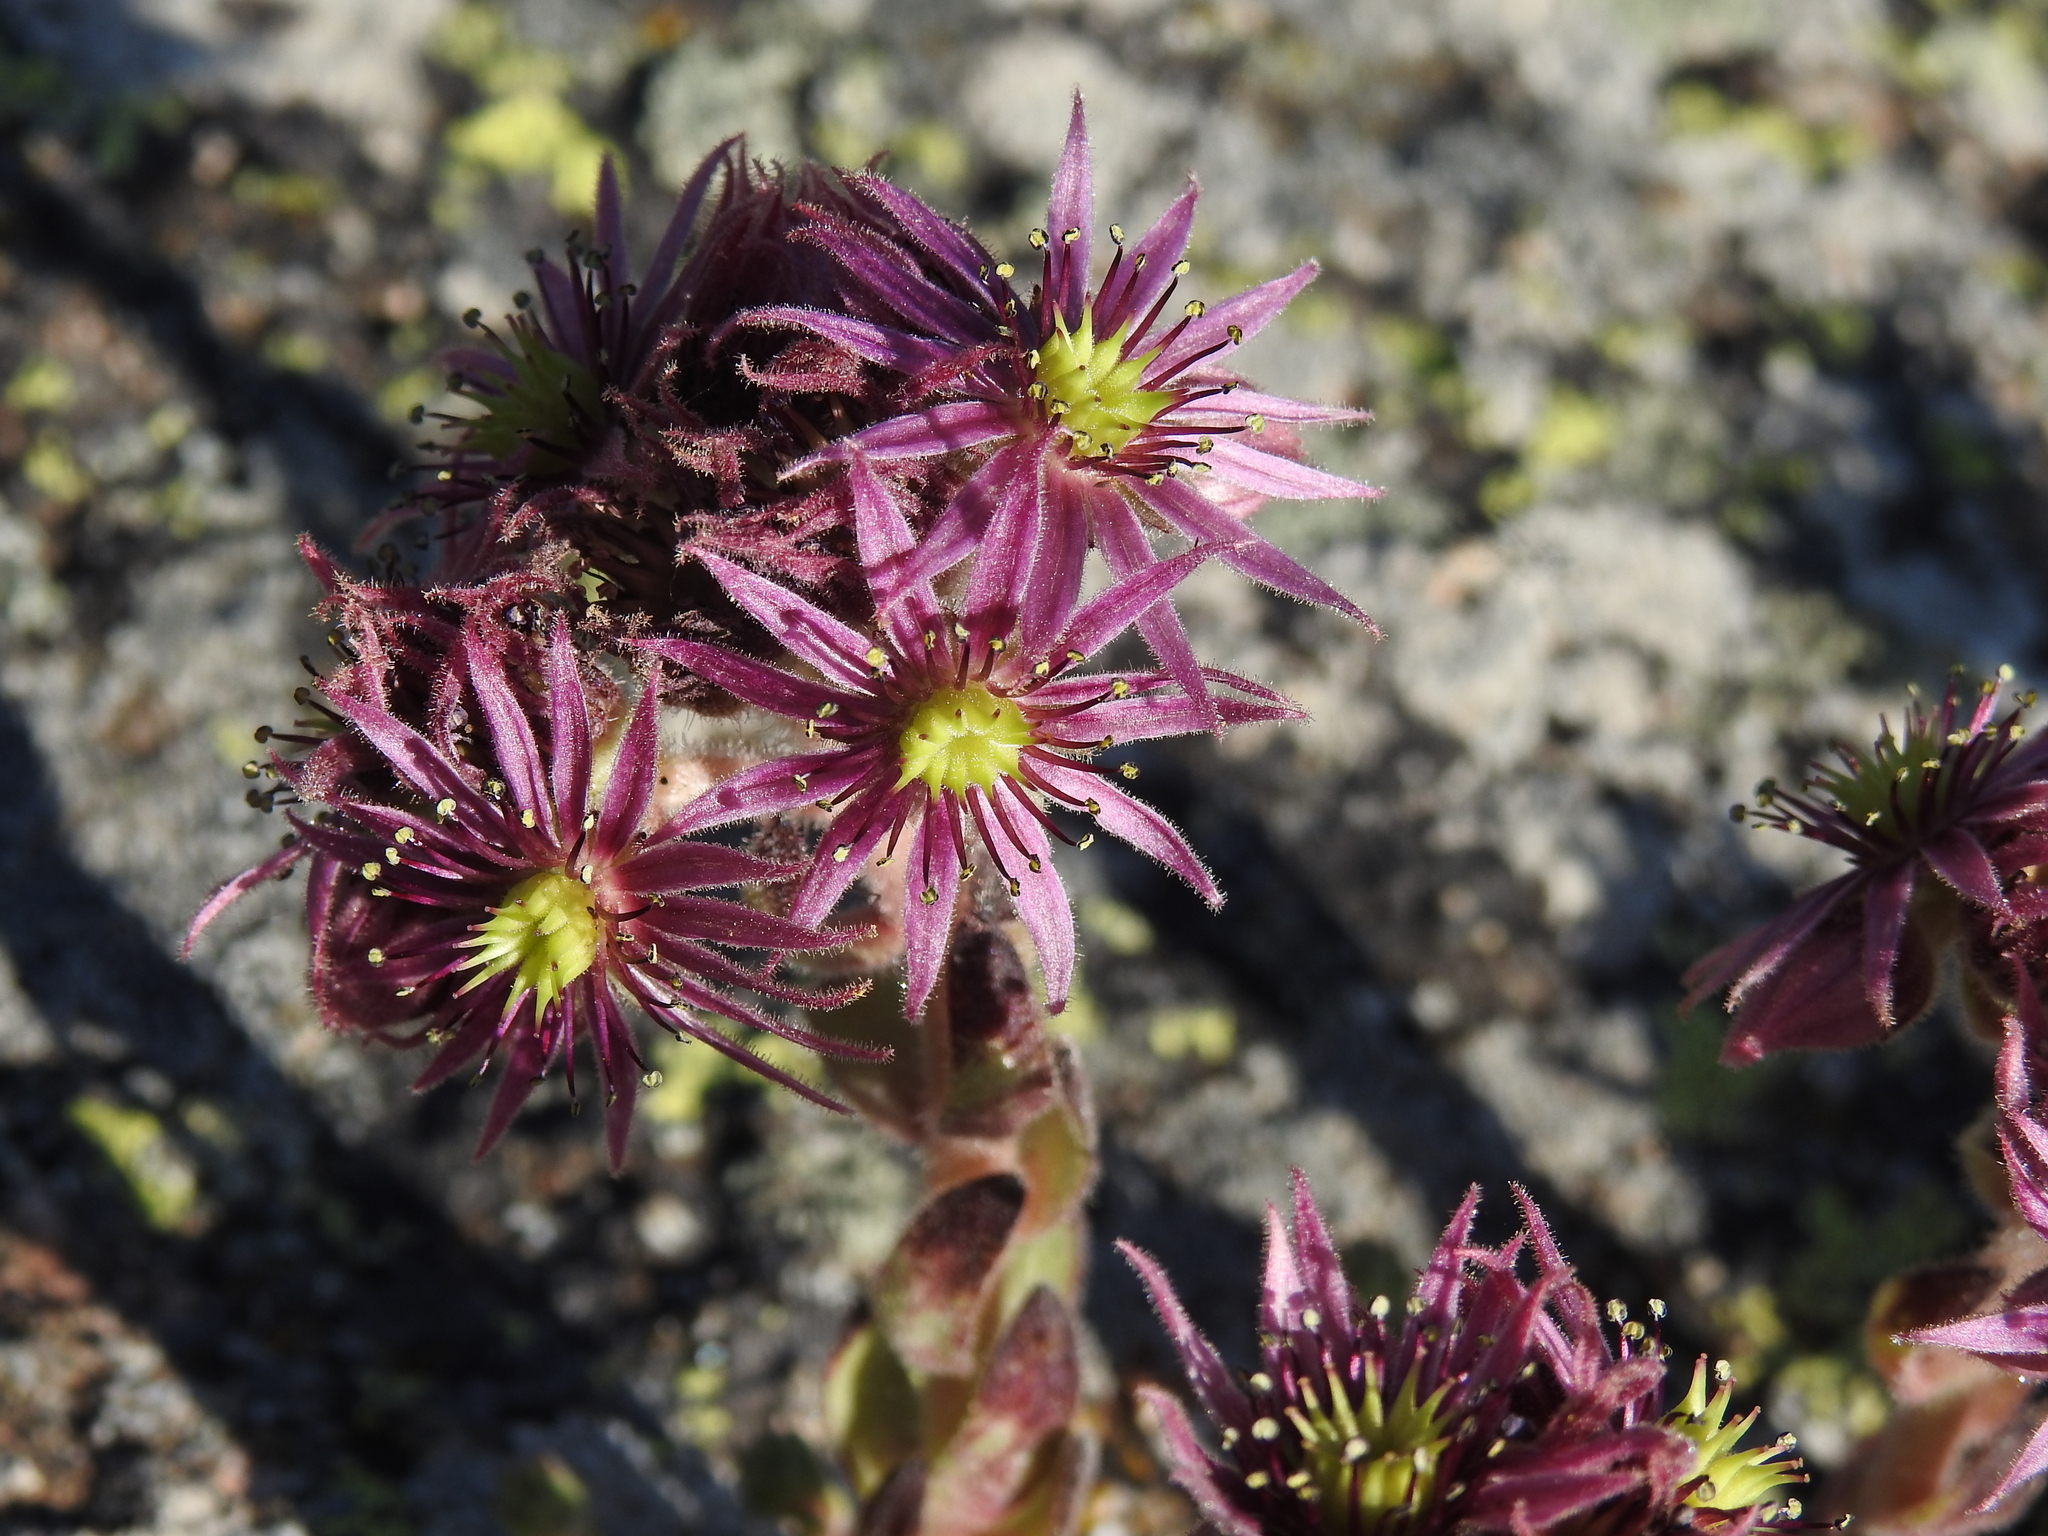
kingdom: Plantae
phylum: Tracheophyta
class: Magnoliopsida
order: Saxifragales
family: Crassulaceae
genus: Sempervivum
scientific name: Sempervivum montanum
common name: Mountain house-leek
